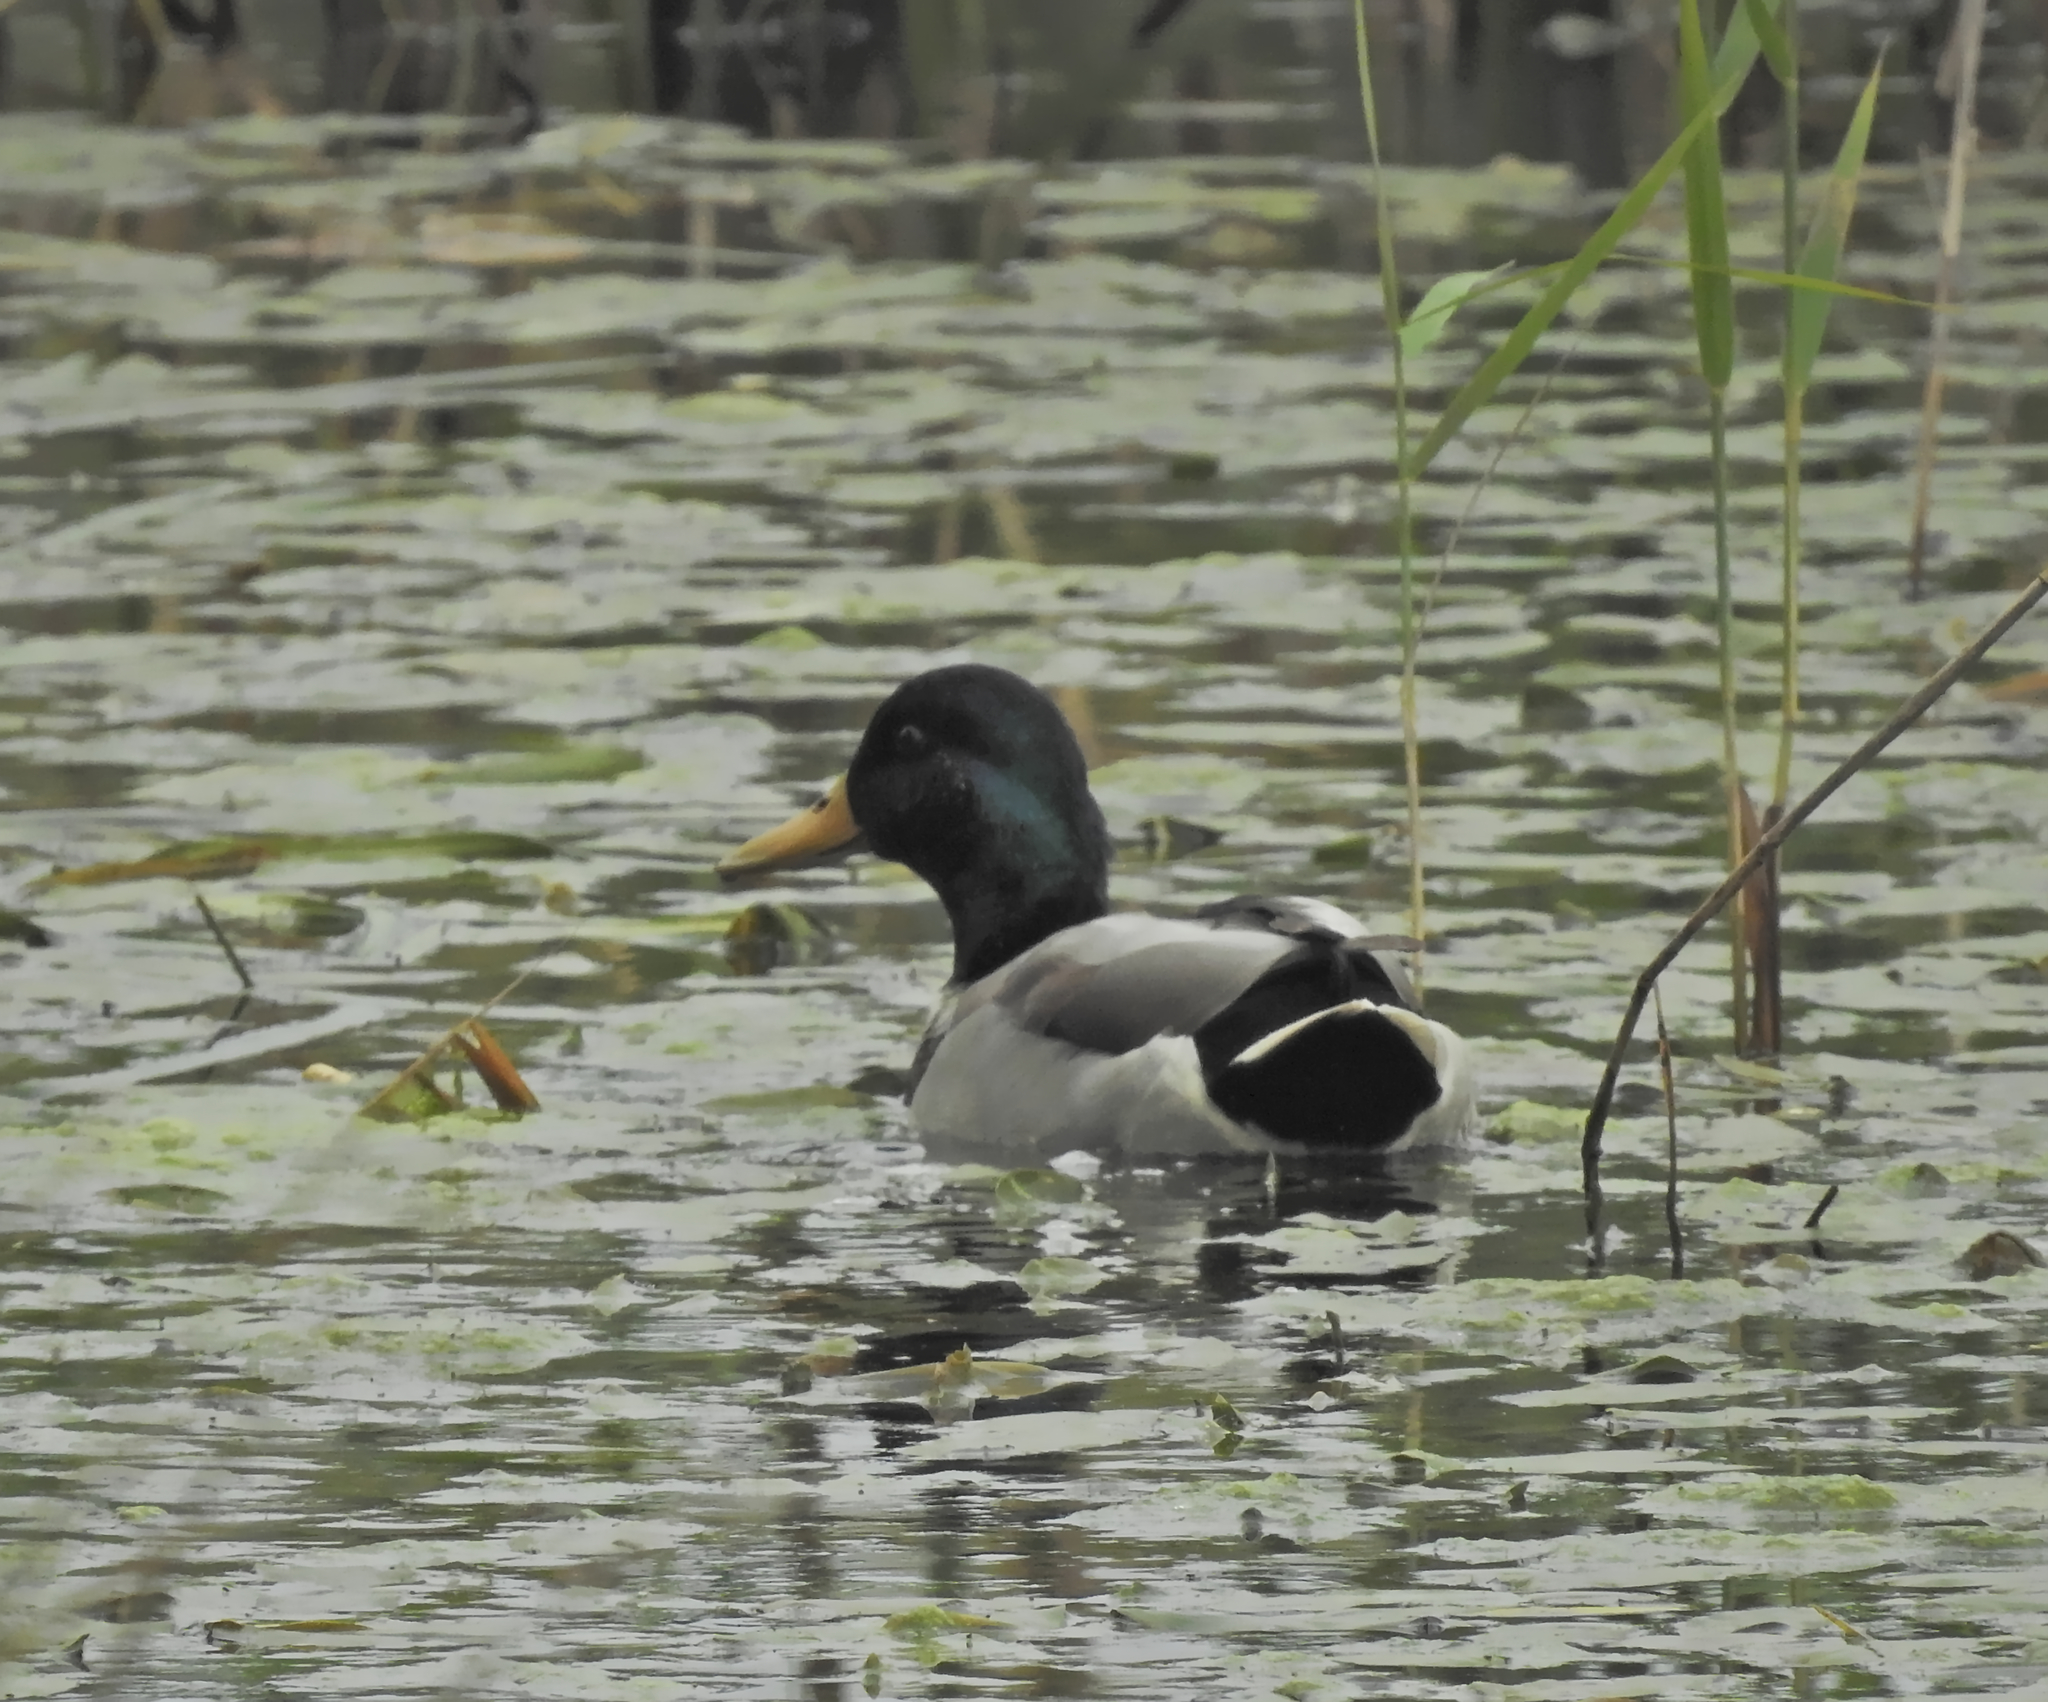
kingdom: Animalia
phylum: Chordata
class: Aves
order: Anseriformes
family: Anatidae
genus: Anas
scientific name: Anas platyrhynchos
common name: Mallard
